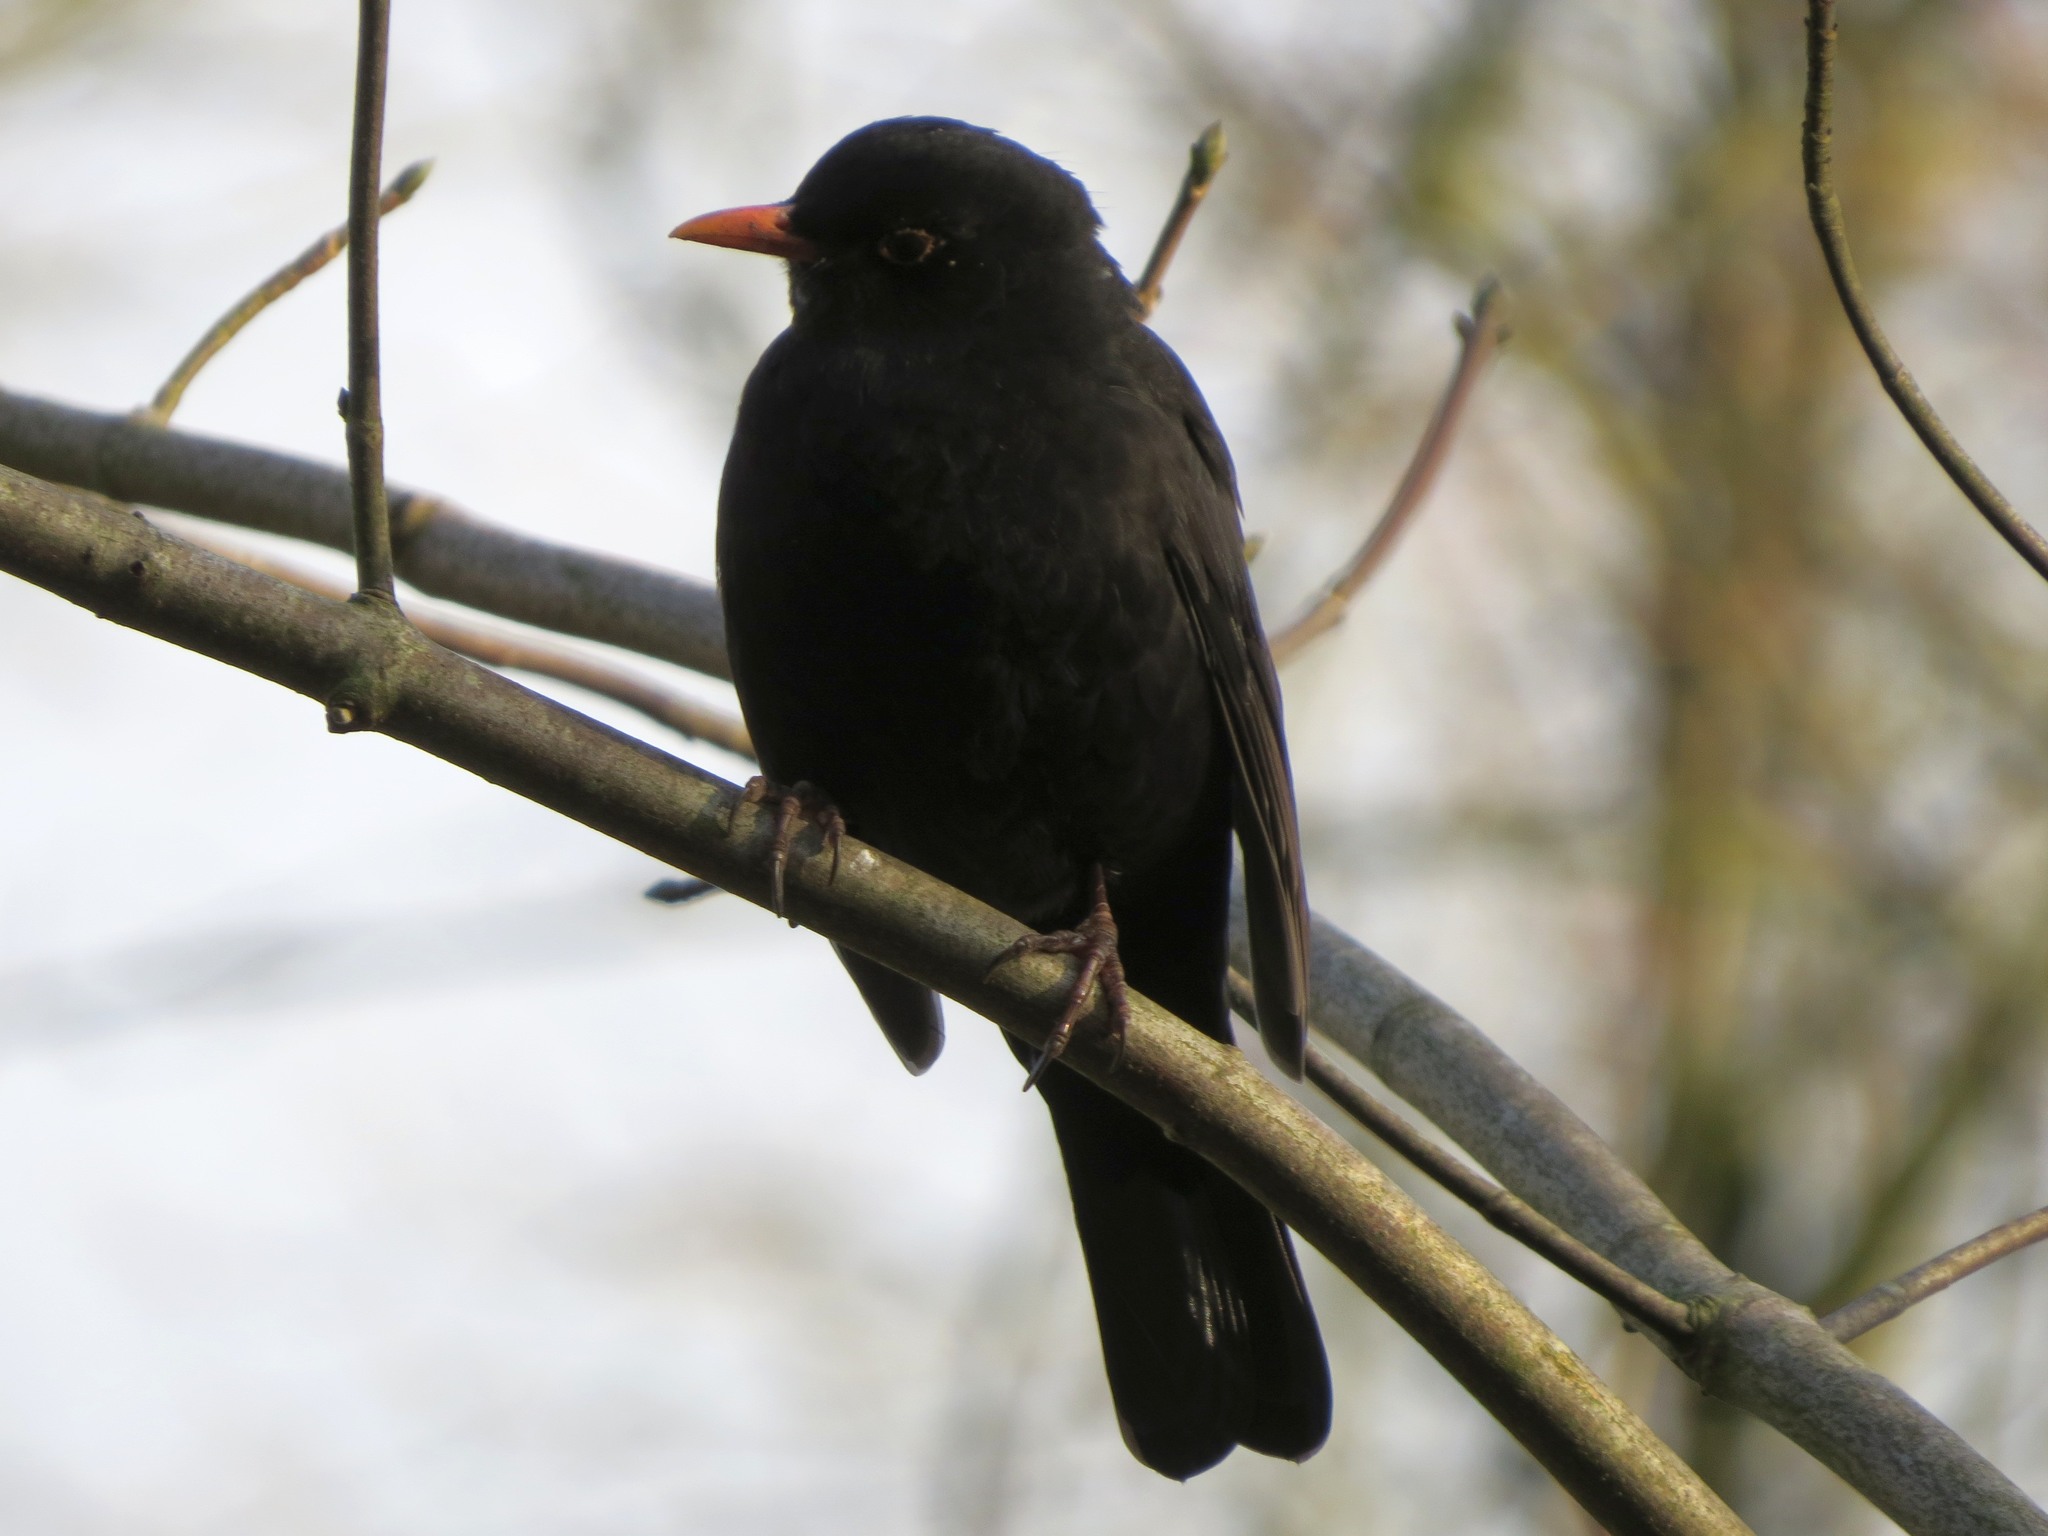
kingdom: Animalia
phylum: Chordata
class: Aves
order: Passeriformes
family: Turdidae
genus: Turdus
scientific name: Turdus merula
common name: Common blackbird
